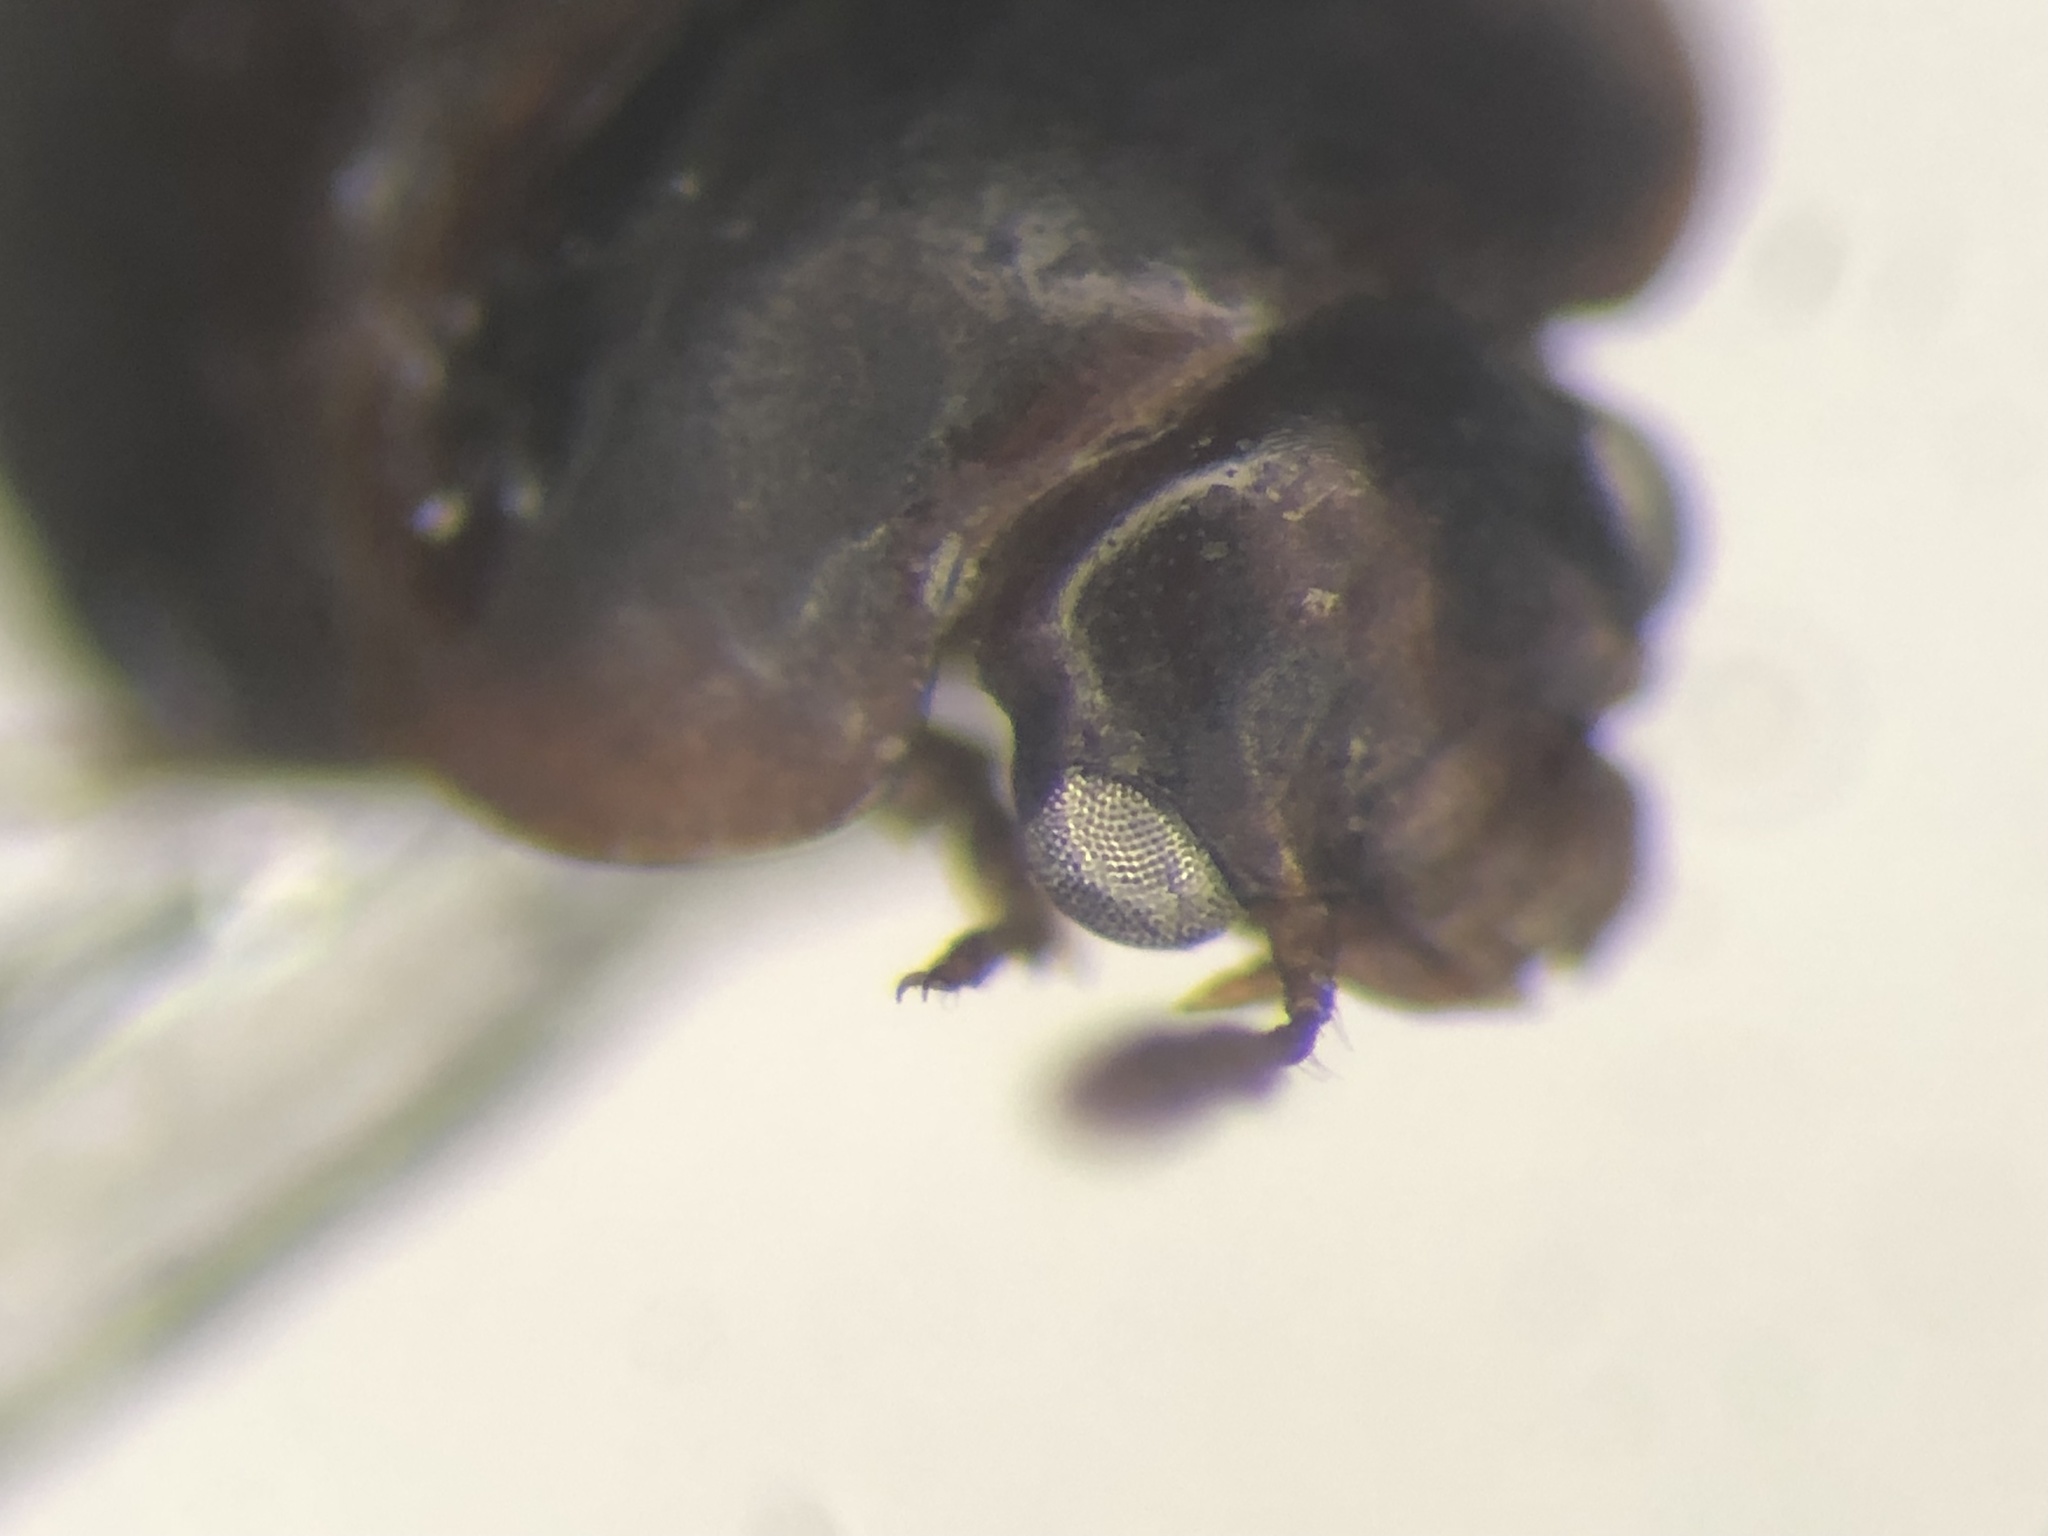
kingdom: Animalia
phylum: Arthropoda
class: Insecta
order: Coleoptera
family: Leiodidae
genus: Gelae
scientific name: Gelae parile
